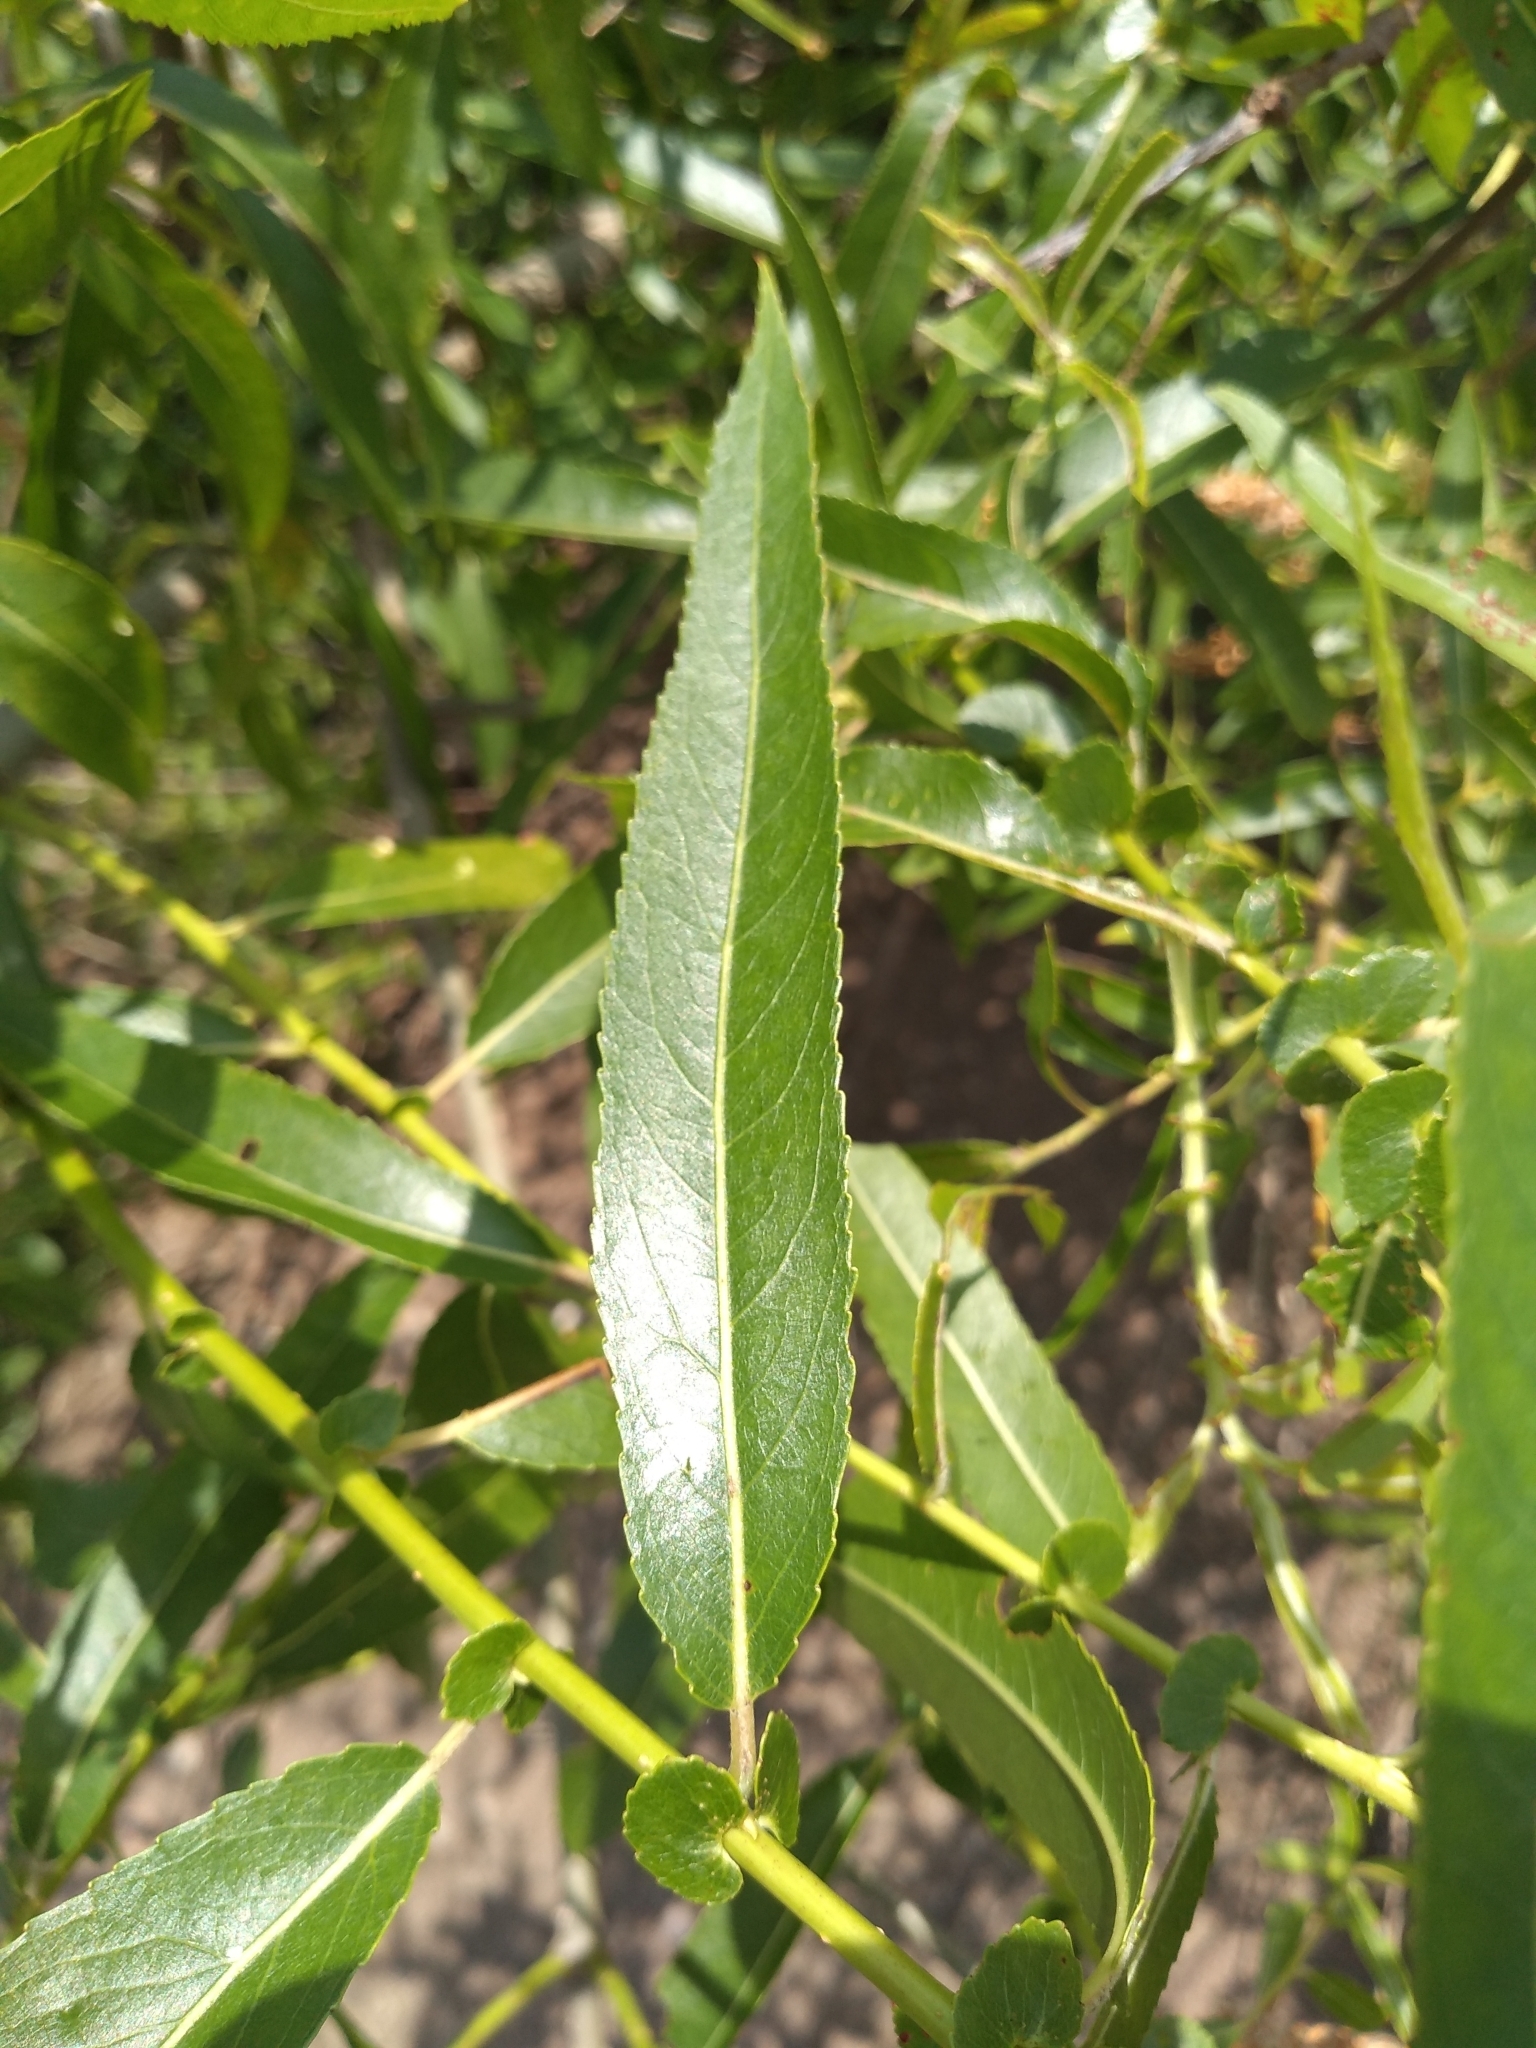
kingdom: Plantae
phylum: Tracheophyta
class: Magnoliopsida
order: Malpighiales
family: Salicaceae
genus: Salix
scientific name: Salix nigra
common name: Black willow
